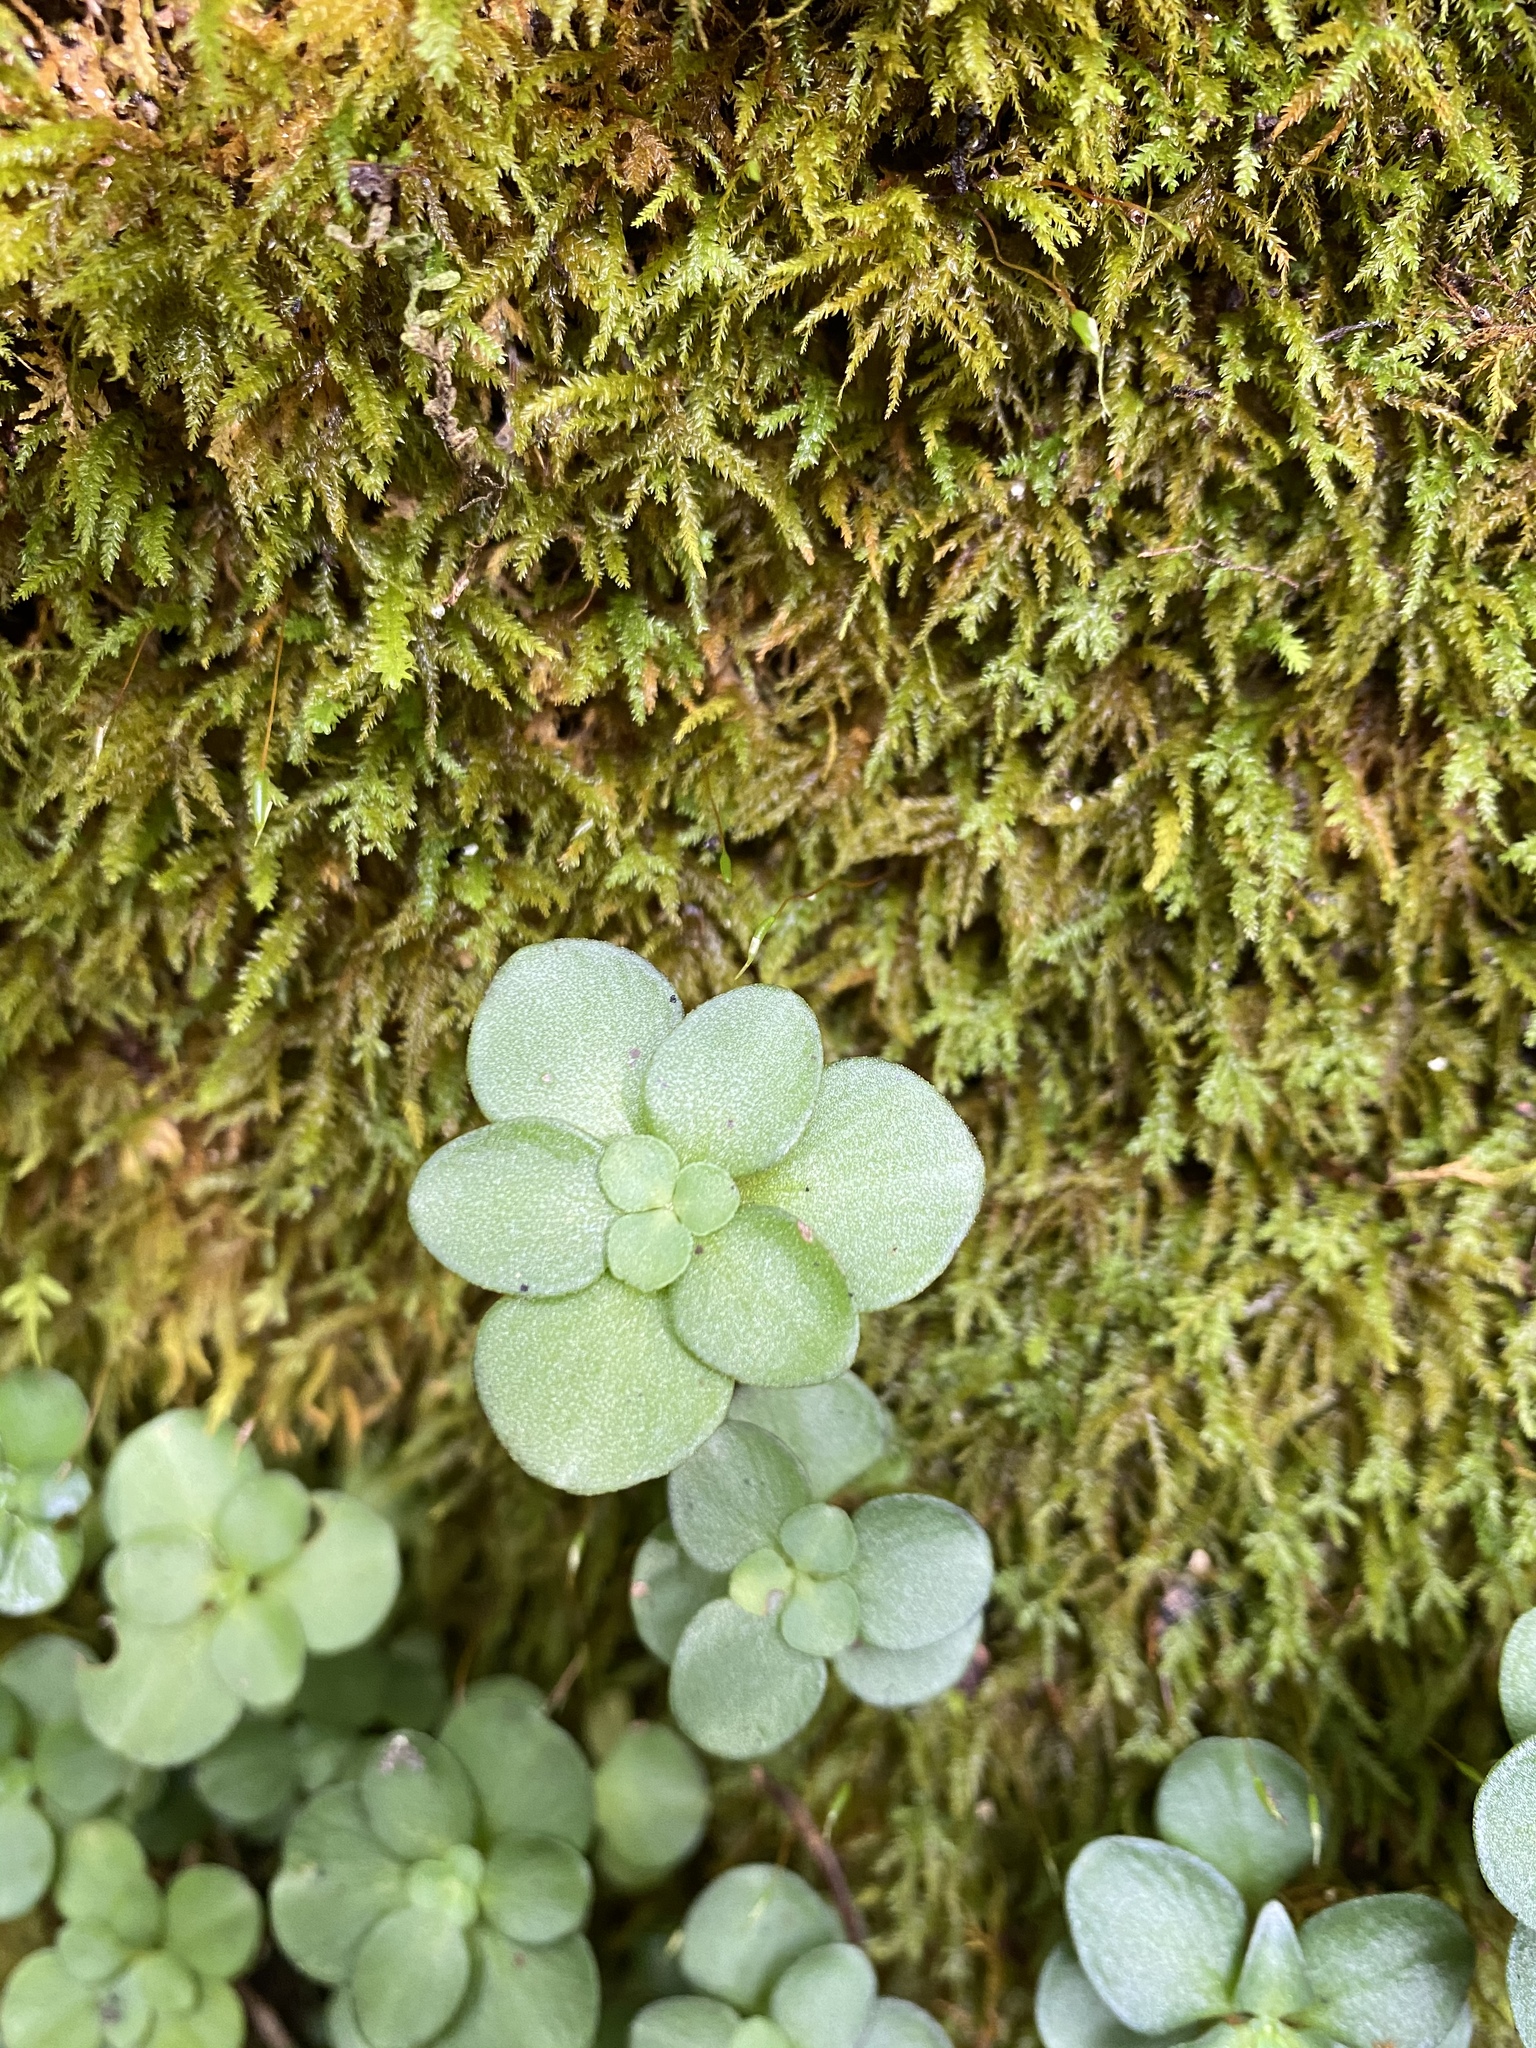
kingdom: Plantae
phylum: Tracheophyta
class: Magnoliopsida
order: Saxifragales
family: Crassulaceae
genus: Sedum
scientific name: Sedum ternatum
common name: Wild stonecrop
